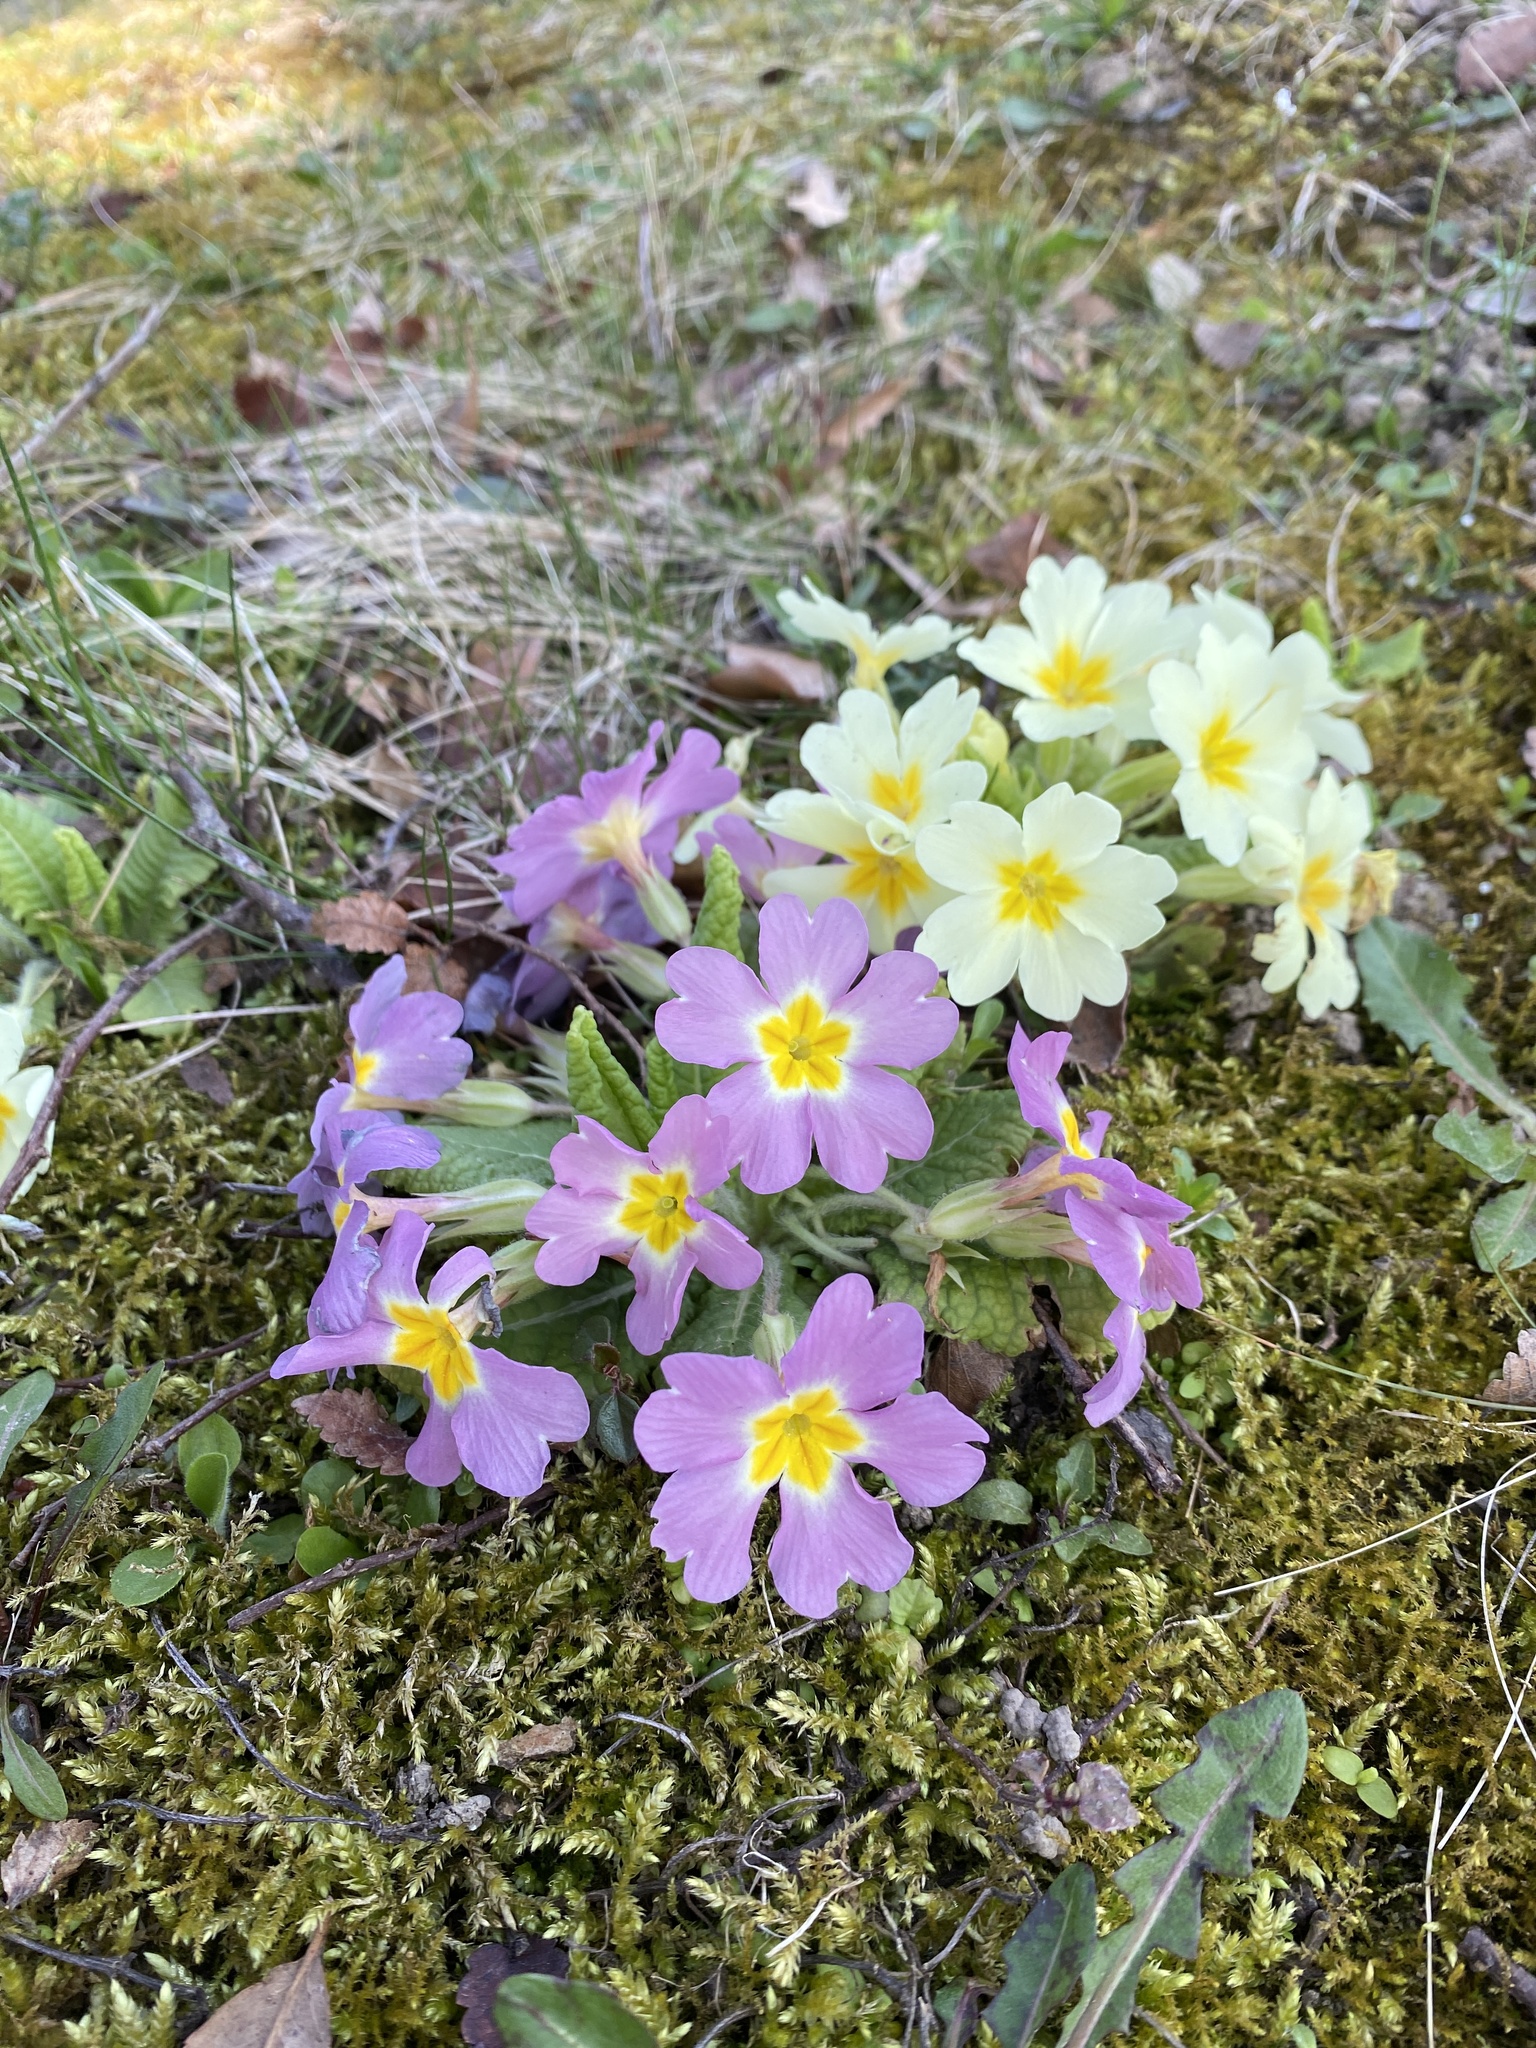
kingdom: Plantae
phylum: Tracheophyta
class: Magnoliopsida
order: Ericales
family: Primulaceae
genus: Primula
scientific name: Primula vulgaris
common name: Primrose
